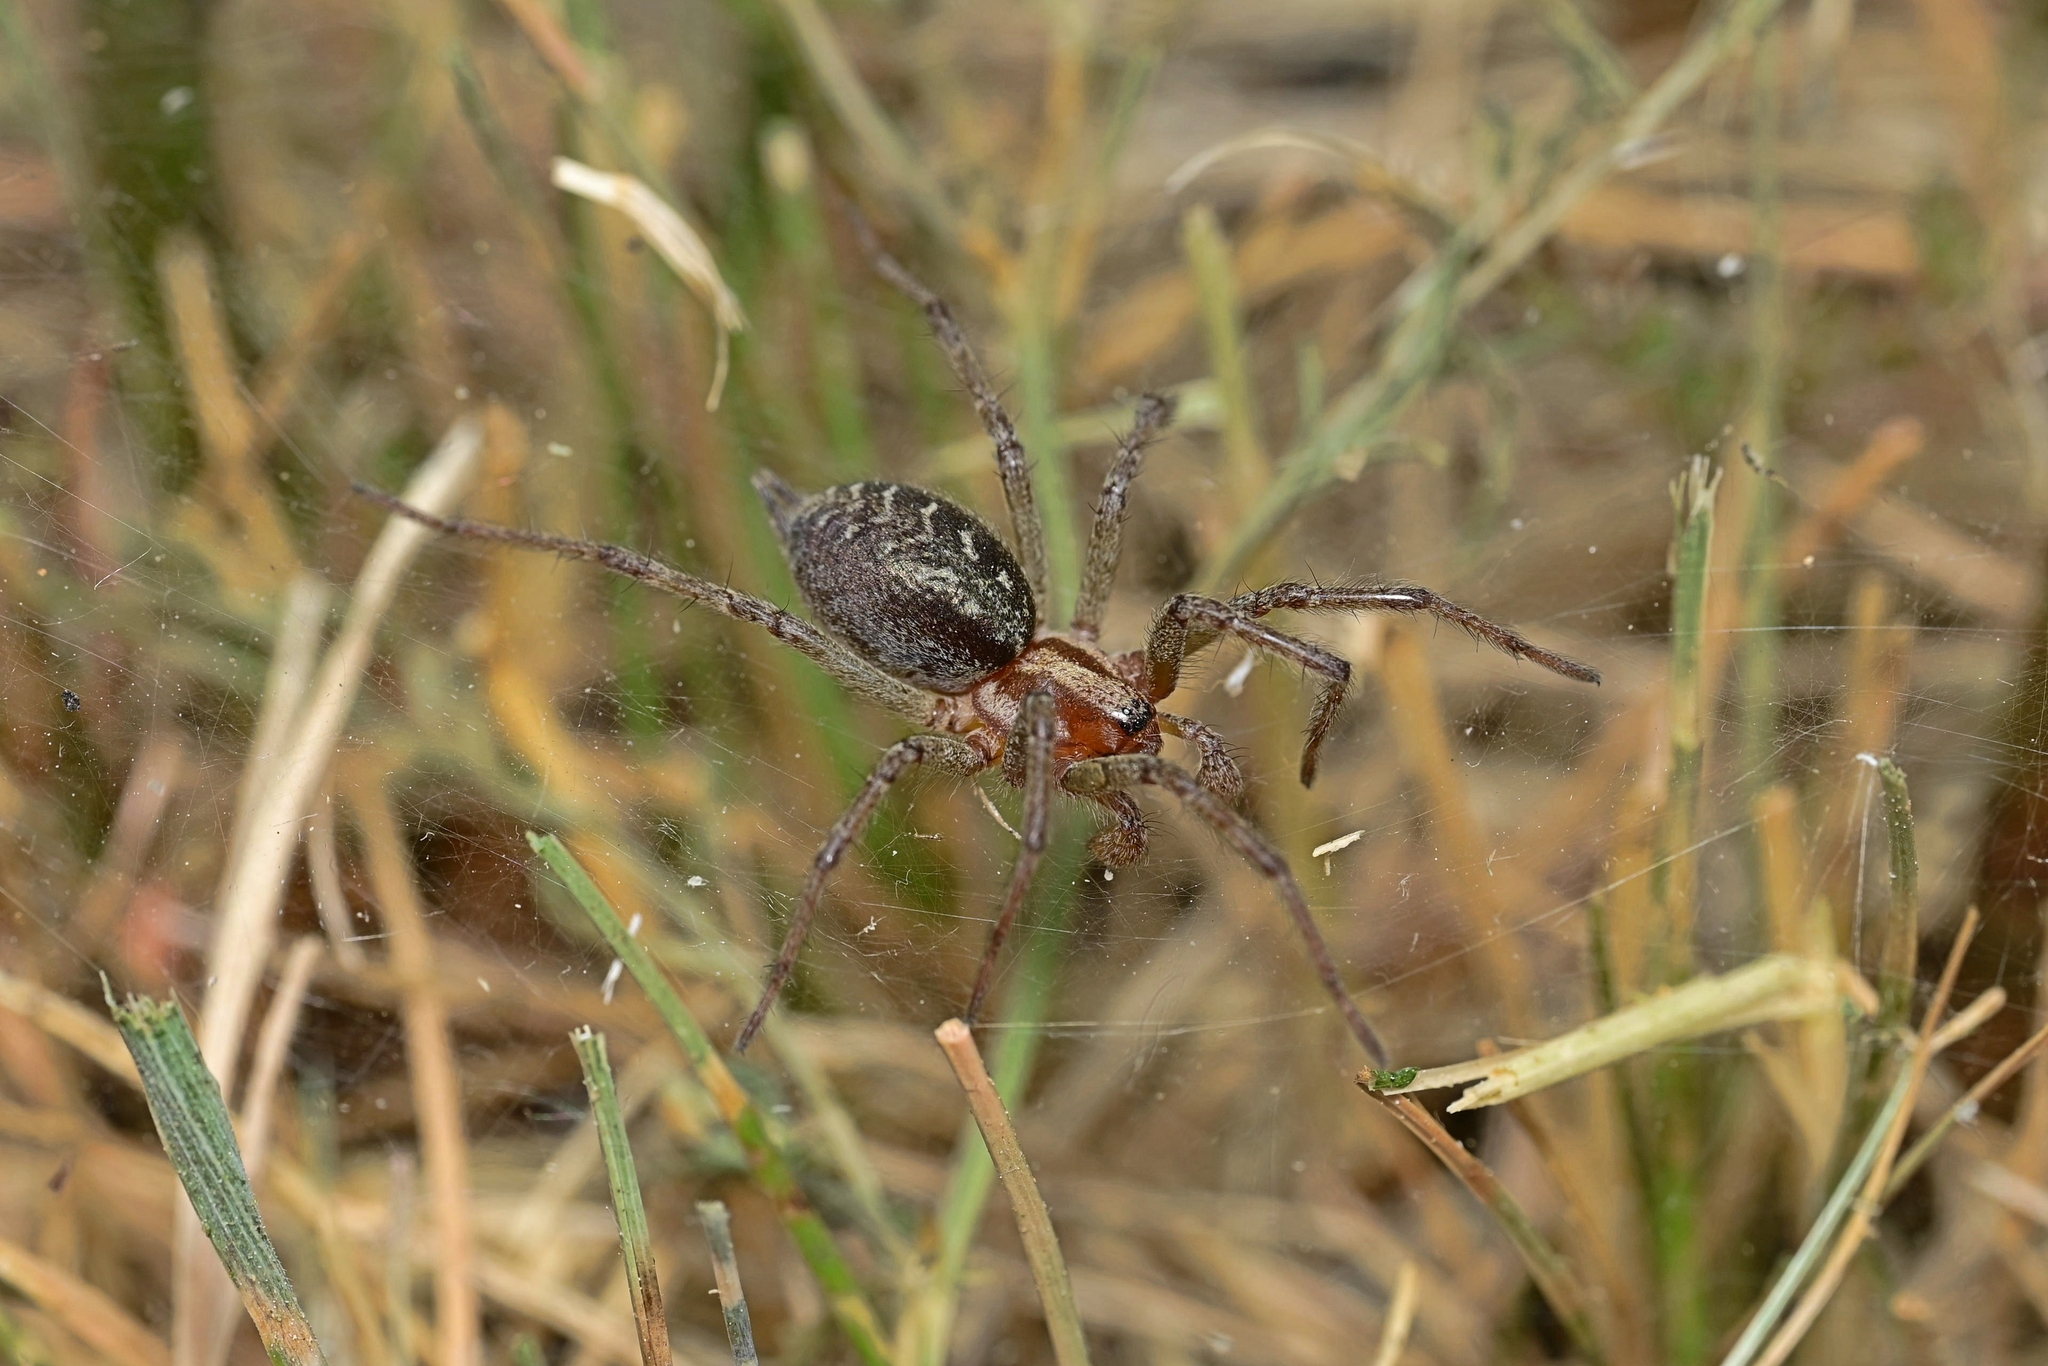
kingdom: Animalia
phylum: Arthropoda
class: Arachnida
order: Araneae
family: Agelenidae
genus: Agelena
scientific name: Agelena labyrinthica
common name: Labyrinth spider
